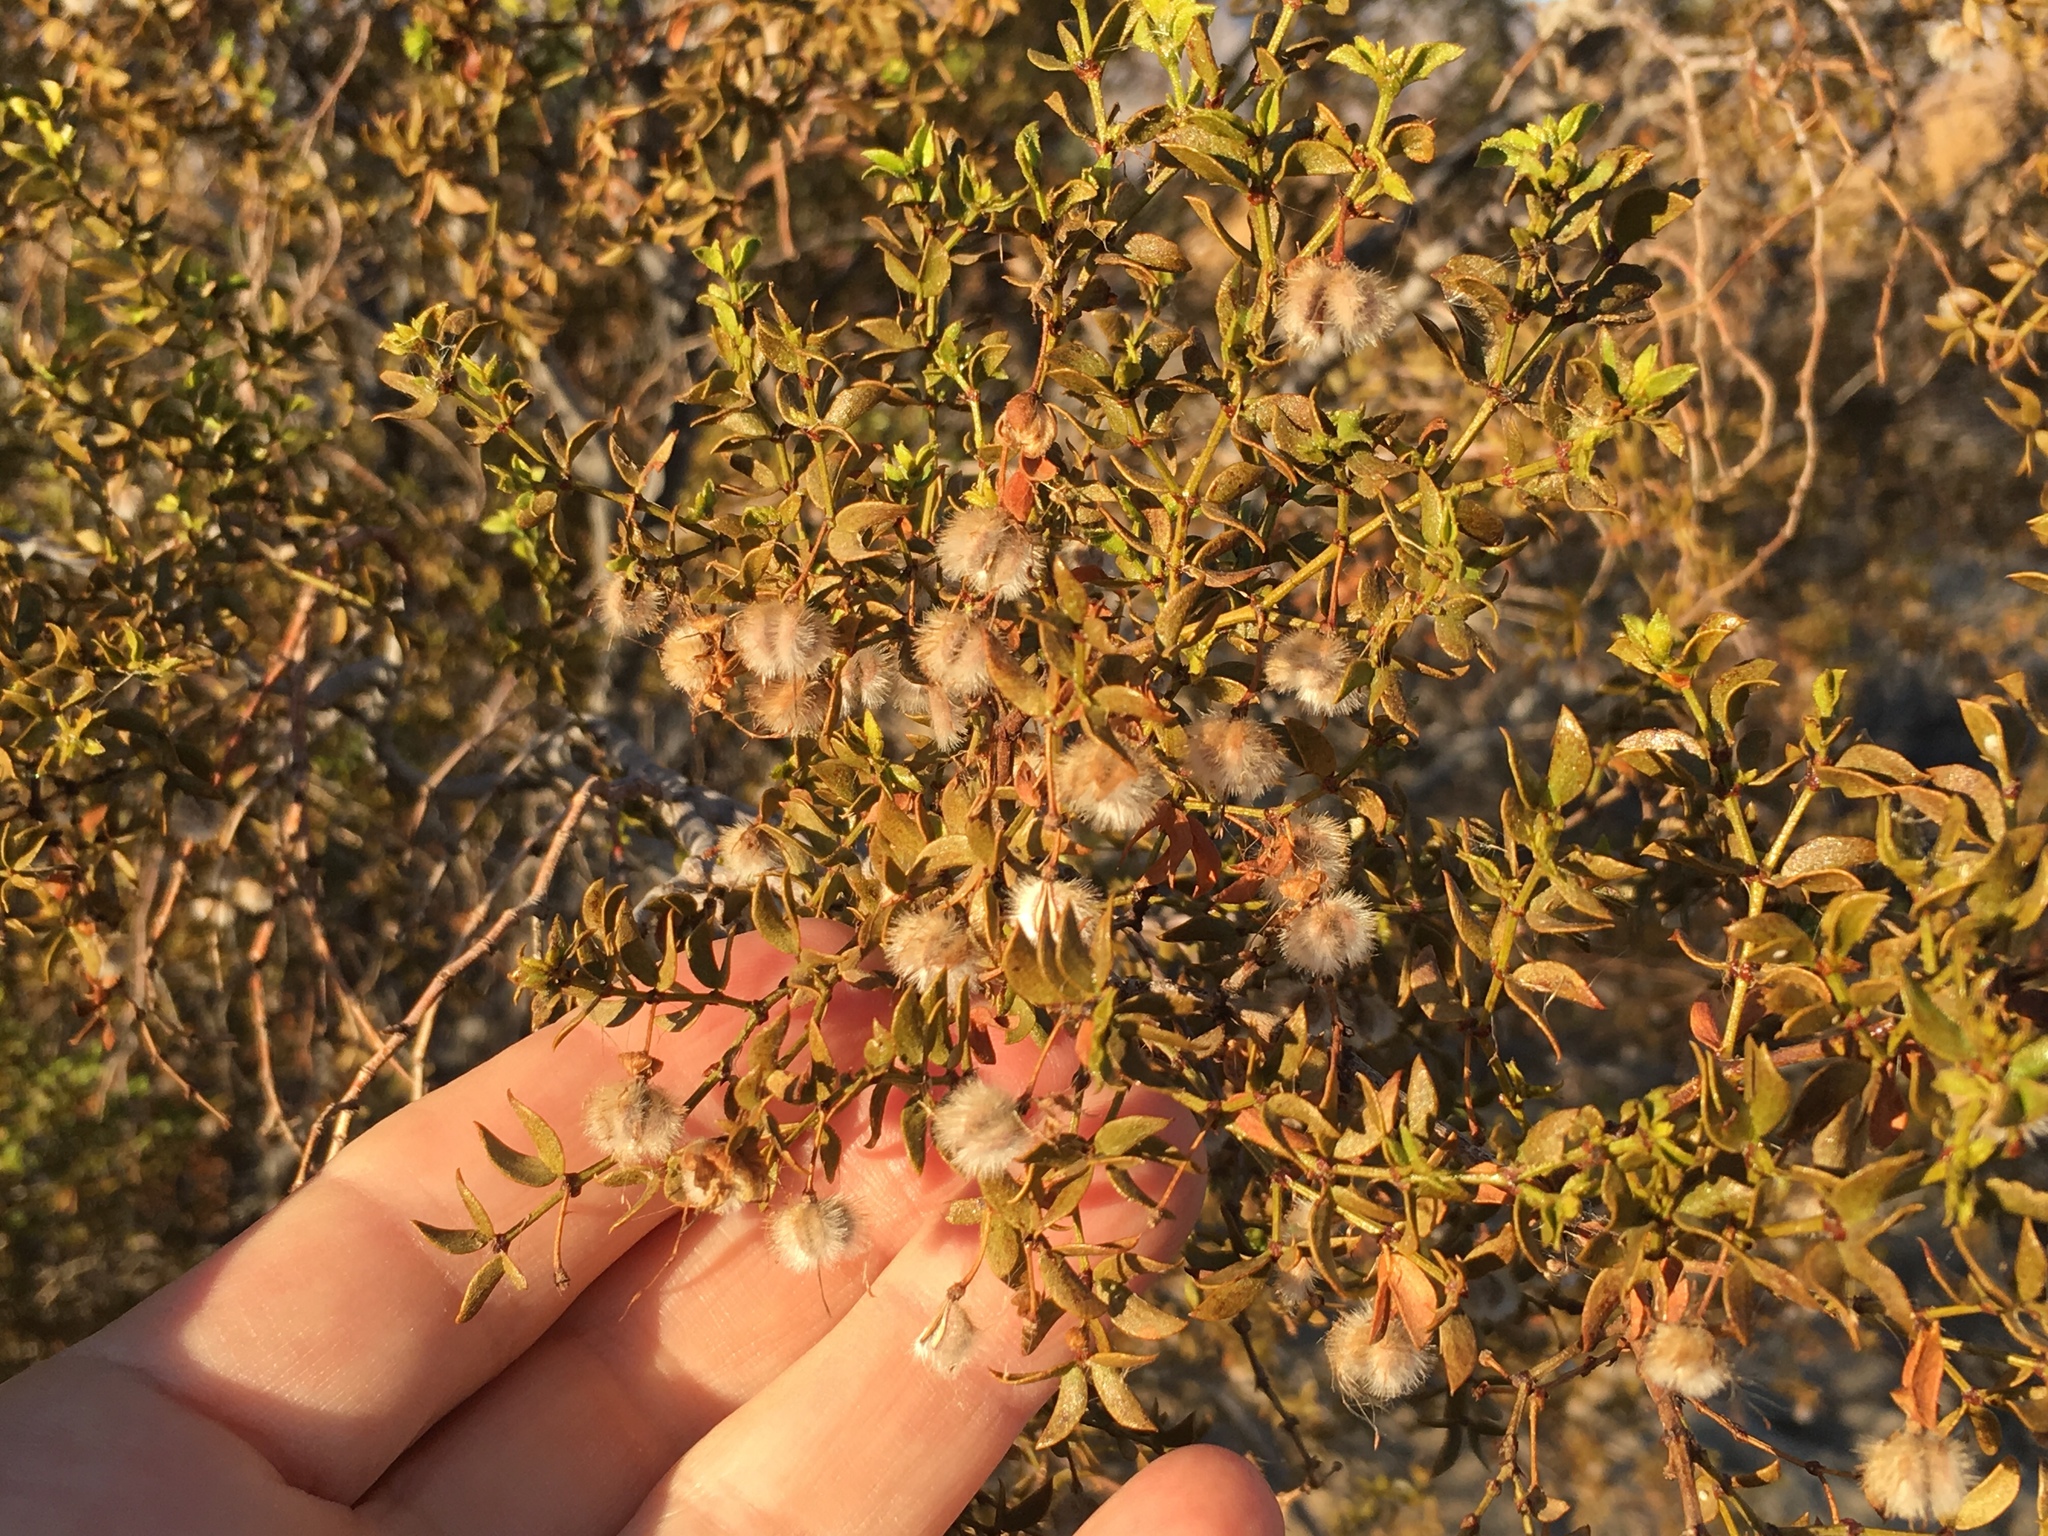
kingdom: Plantae
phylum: Tracheophyta
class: Magnoliopsida
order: Zygophyllales
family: Zygophyllaceae
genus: Larrea
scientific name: Larrea tridentata
